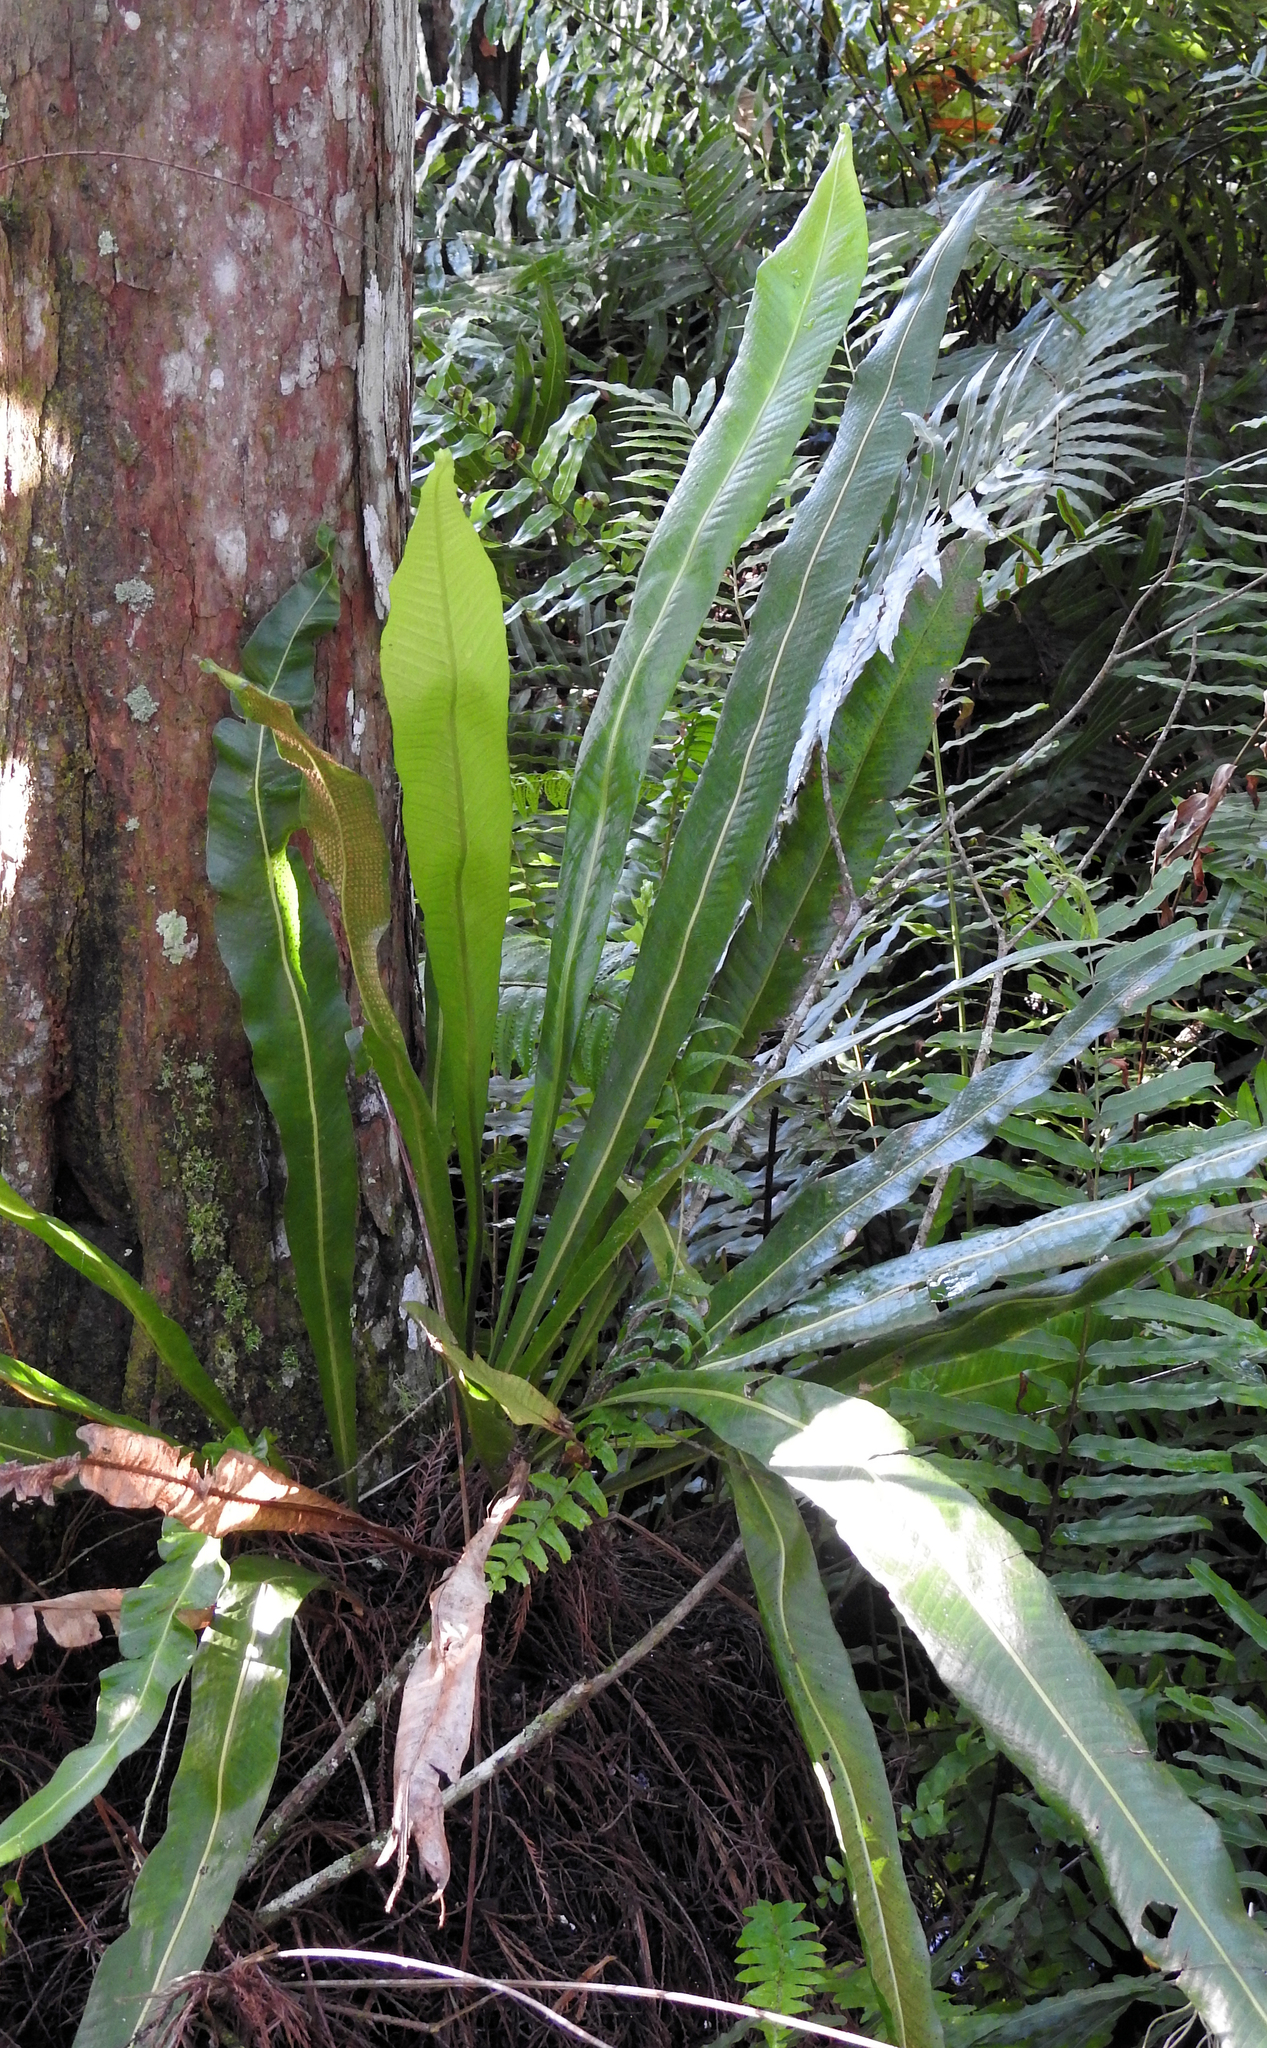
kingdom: Plantae
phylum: Tracheophyta
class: Polypodiopsida
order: Polypodiales
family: Polypodiaceae
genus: Campyloneurum
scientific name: Campyloneurum phyllitidis
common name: Cow-tongue fern
